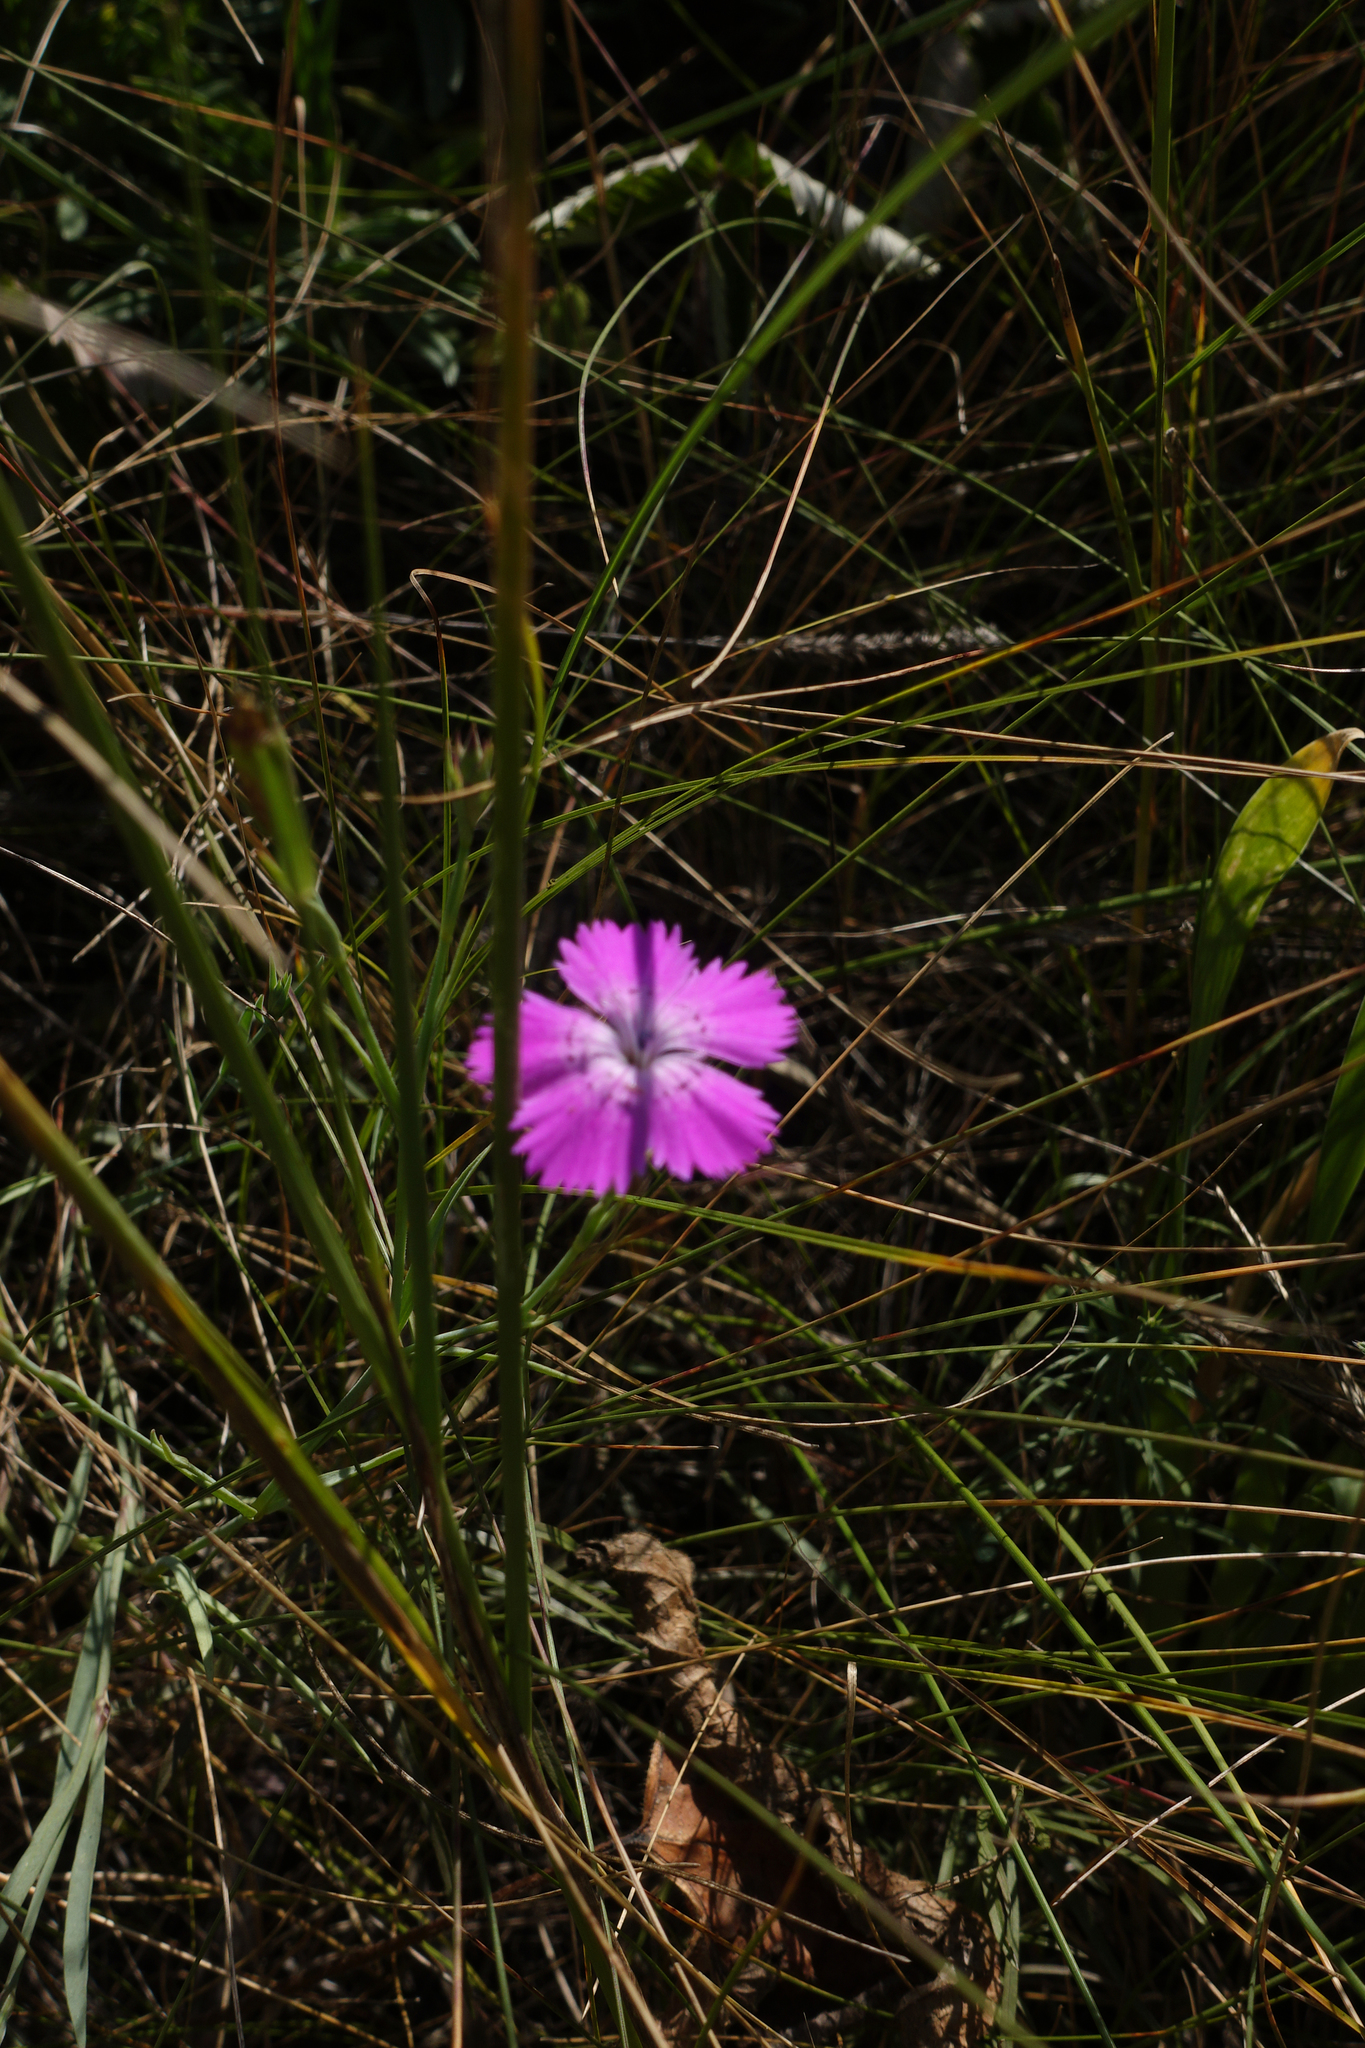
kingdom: Plantae
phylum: Tracheophyta
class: Magnoliopsida
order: Caryophyllales
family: Caryophyllaceae
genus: Dianthus
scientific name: Dianthus chinensis
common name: Rainbow pink
